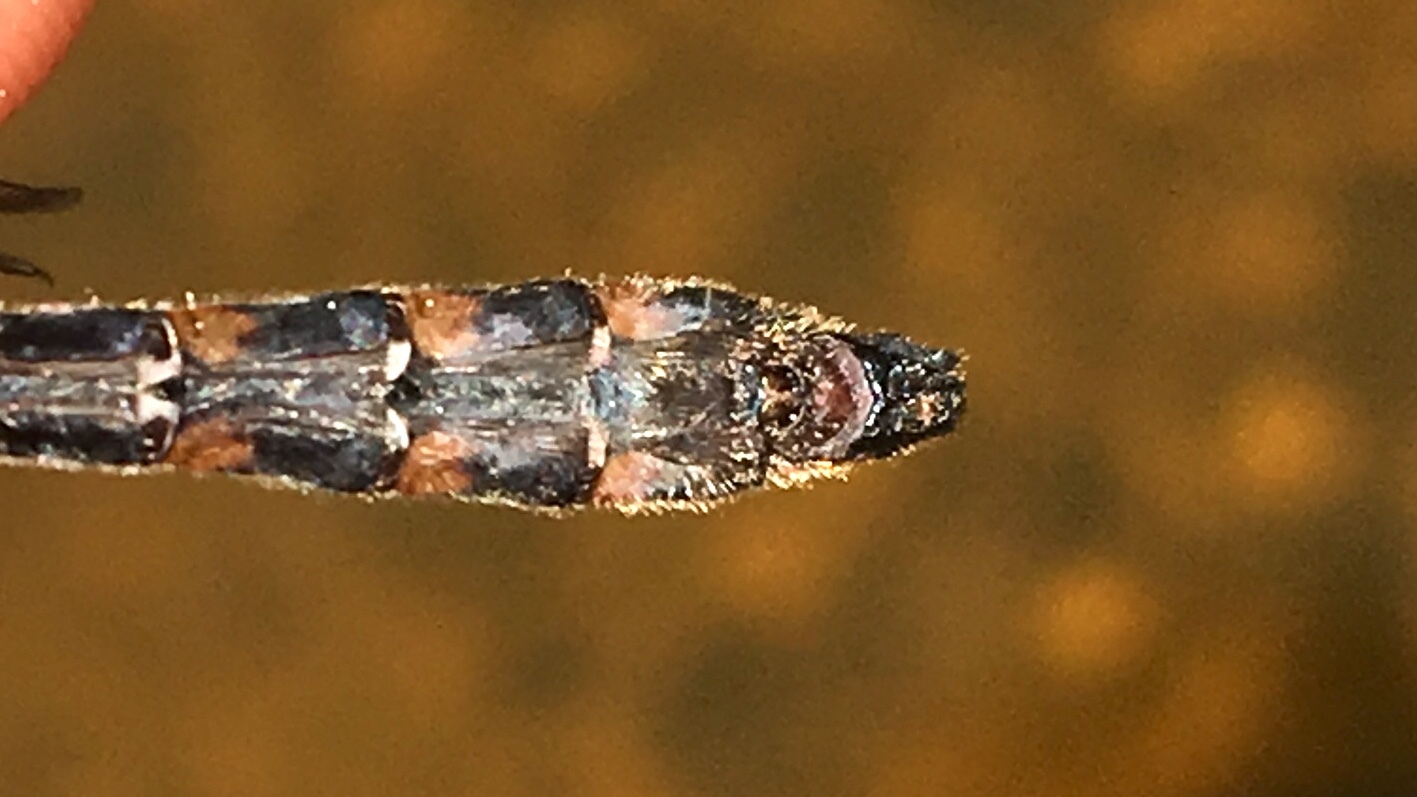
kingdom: Animalia
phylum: Arthropoda
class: Insecta
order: Odonata
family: Corduliidae
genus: Helocordulia
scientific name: Helocordulia uhleri
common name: Uhler's sundragon
